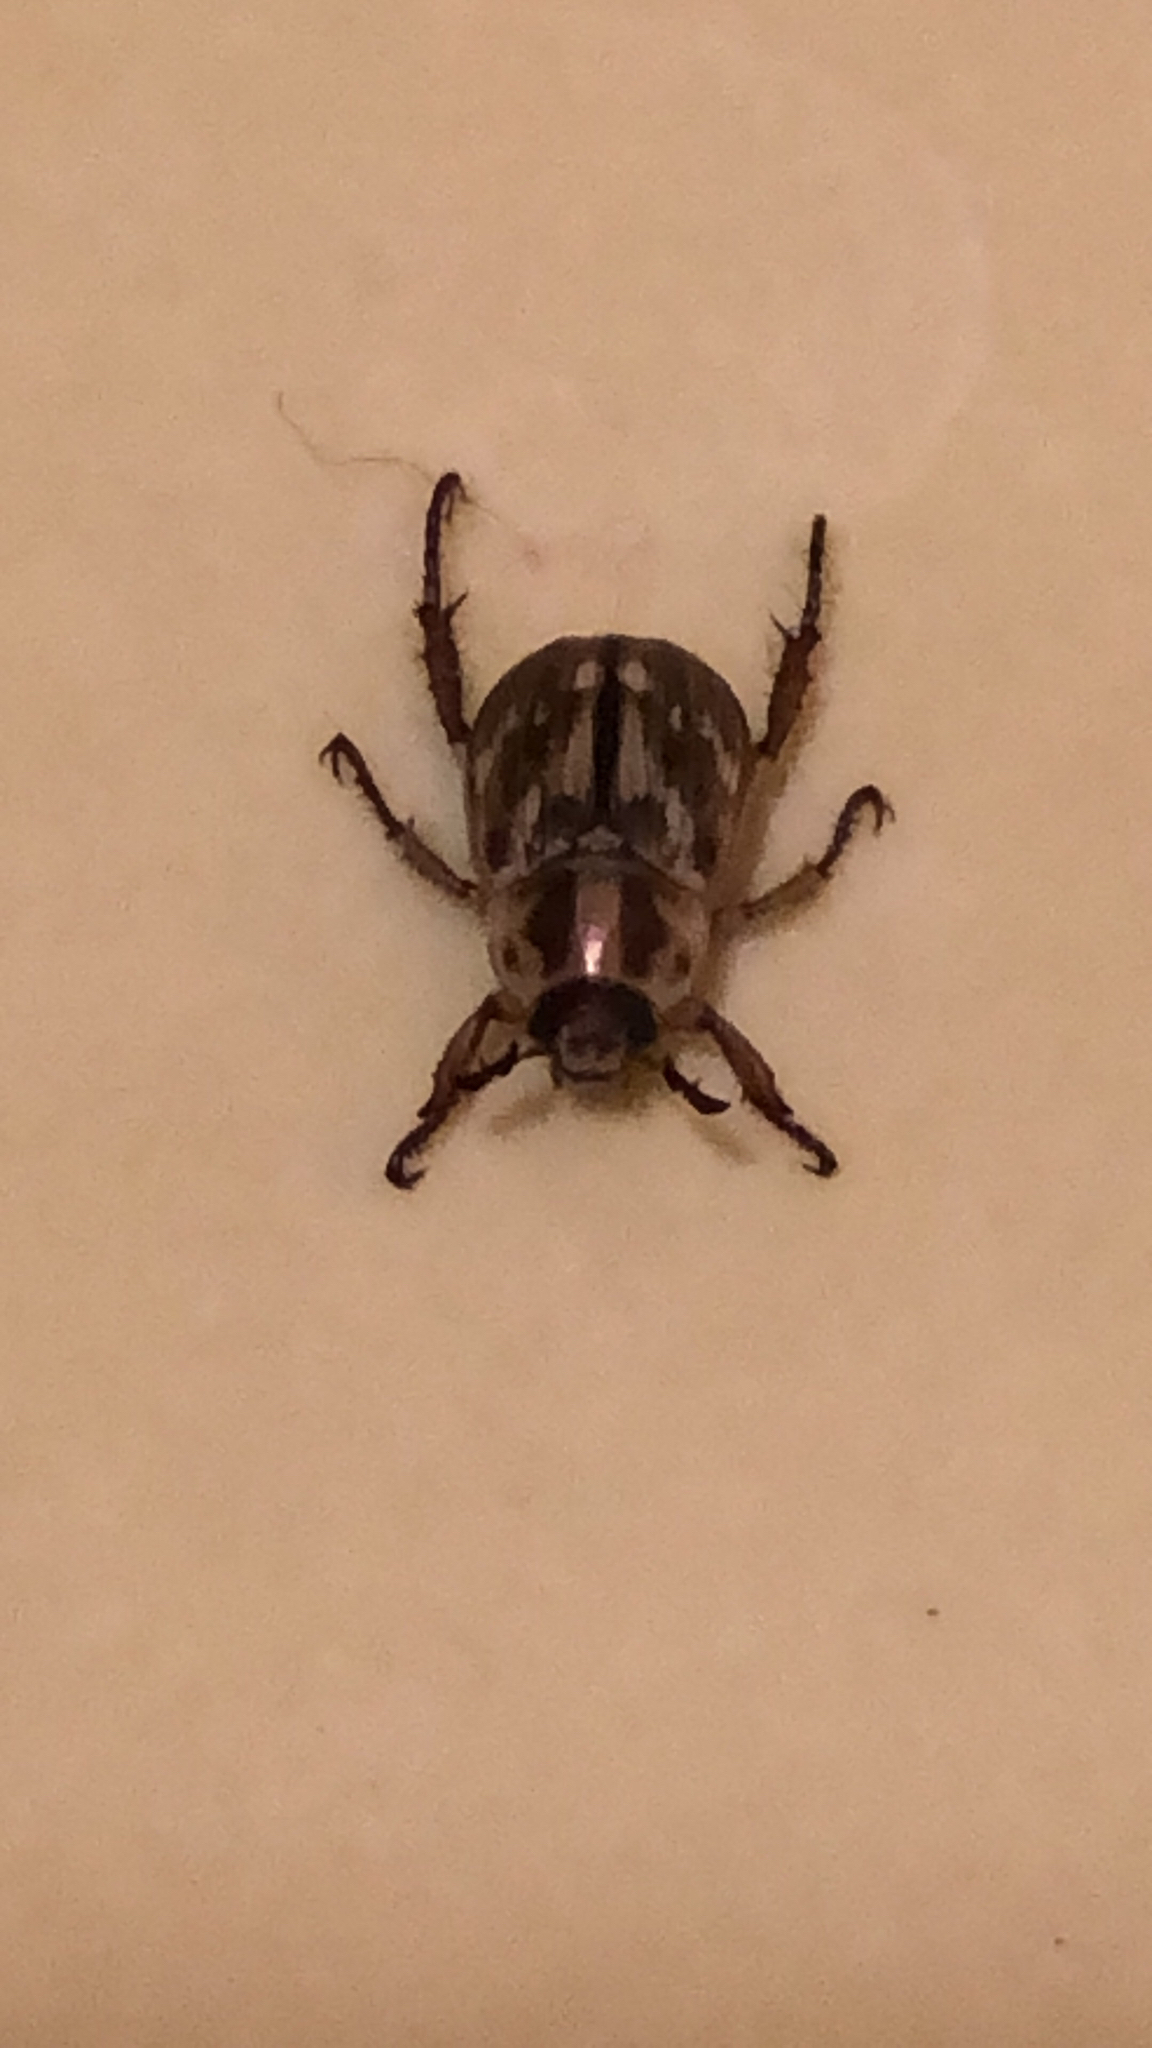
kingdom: Animalia
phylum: Arthropoda
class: Insecta
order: Coleoptera
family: Scarabaeidae
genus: Exomala
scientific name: Exomala orientalis
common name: Oriental beetle
